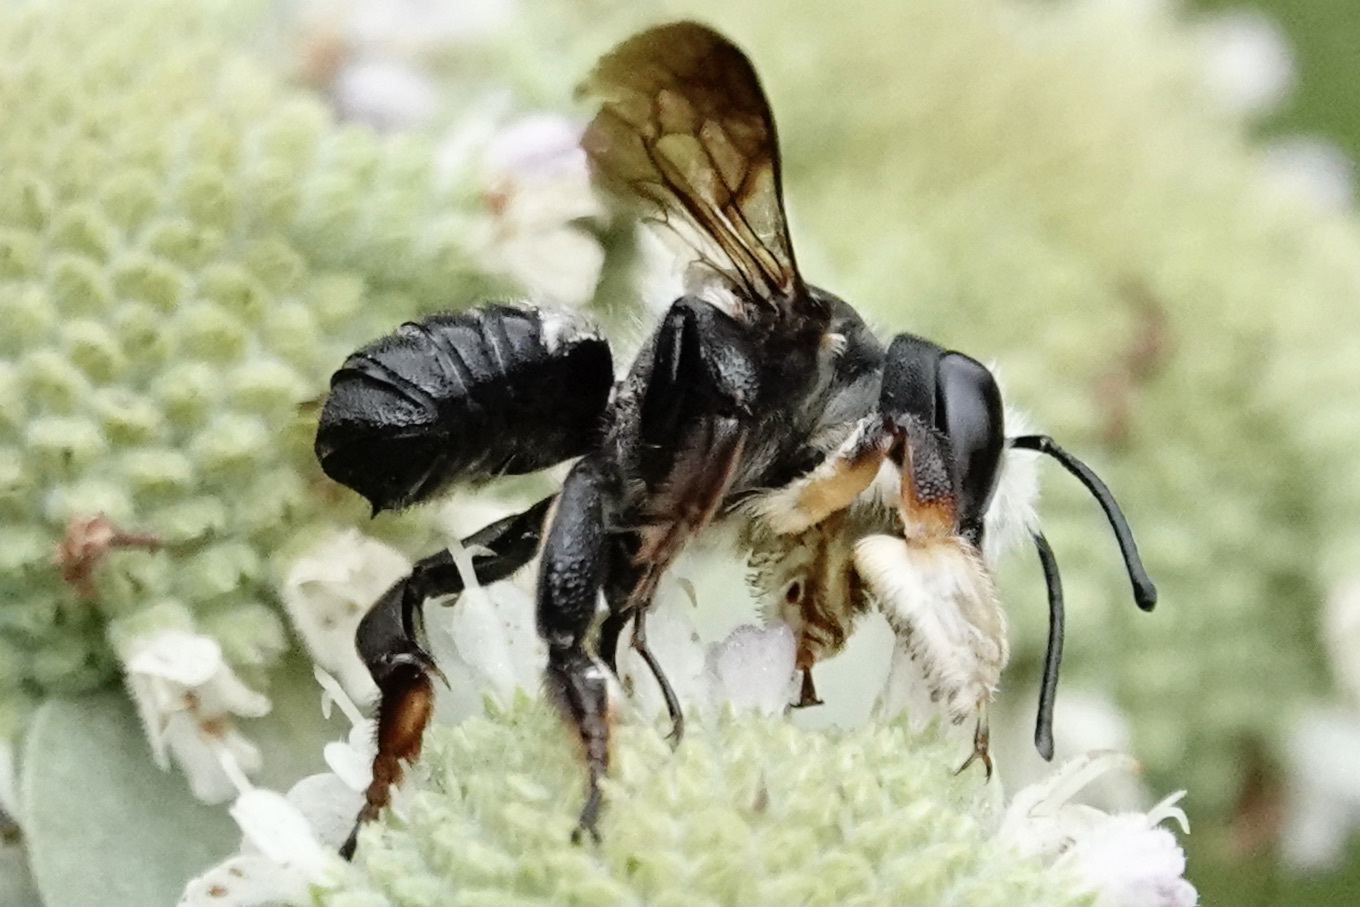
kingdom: Animalia
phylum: Arthropoda
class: Insecta
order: Hymenoptera
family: Megachilidae
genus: Megachile
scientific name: Megachile xylocopoides
